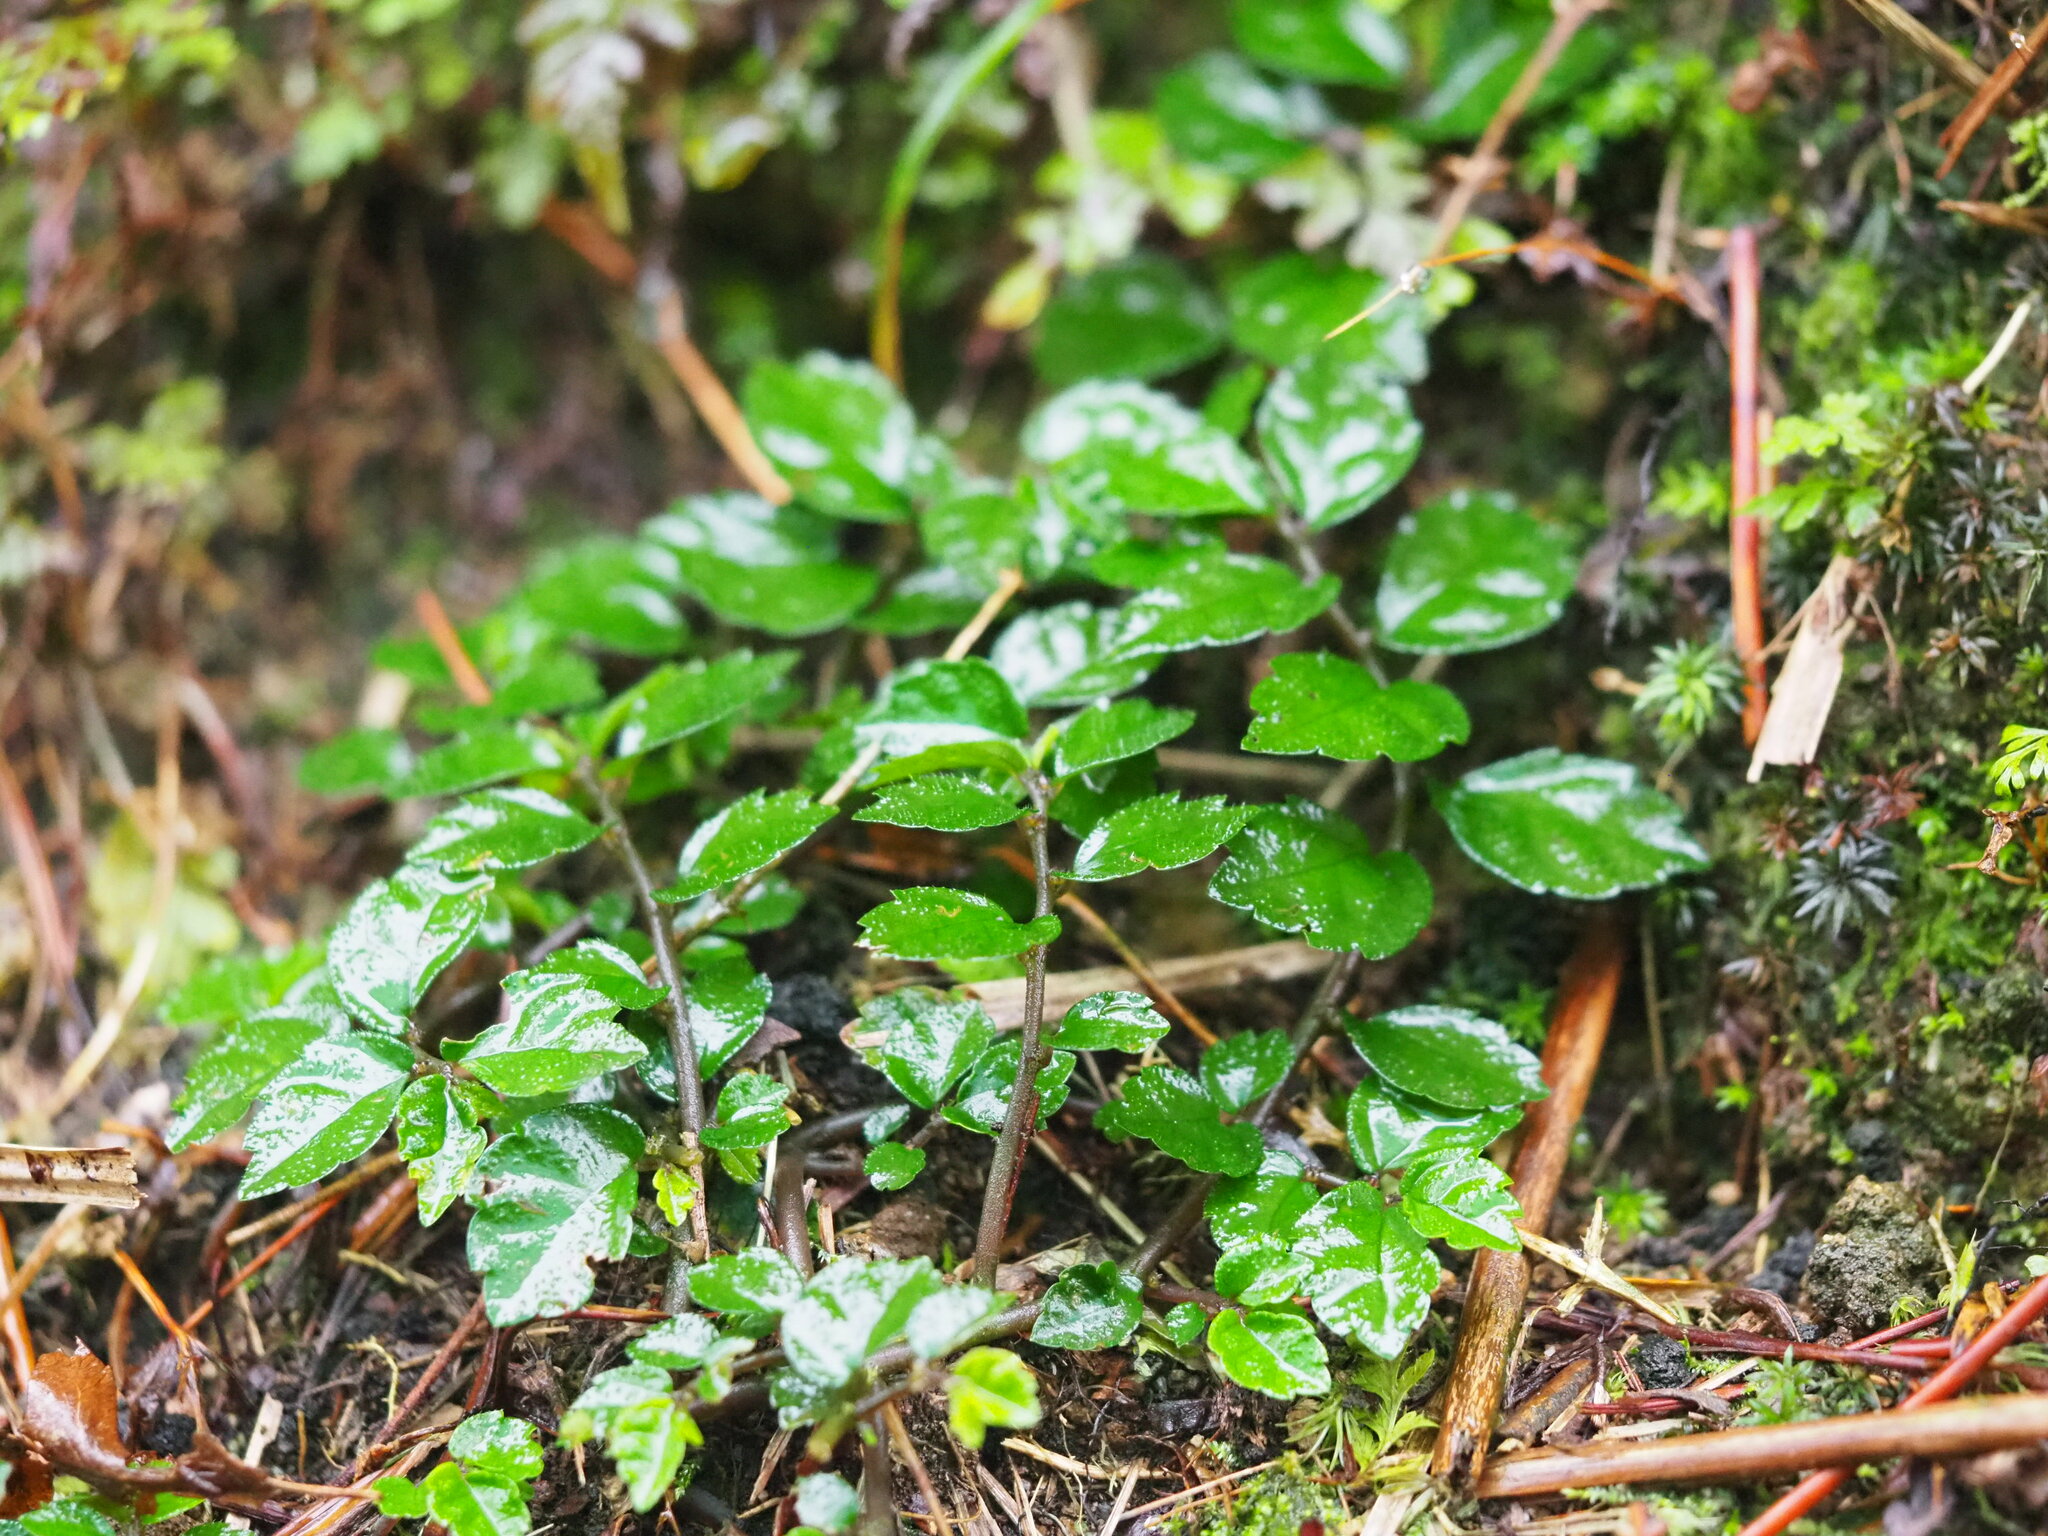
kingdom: Plantae
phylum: Tracheophyta
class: Magnoliopsida
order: Rosales
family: Urticaceae
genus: Elatostema
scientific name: Elatostema radicans
